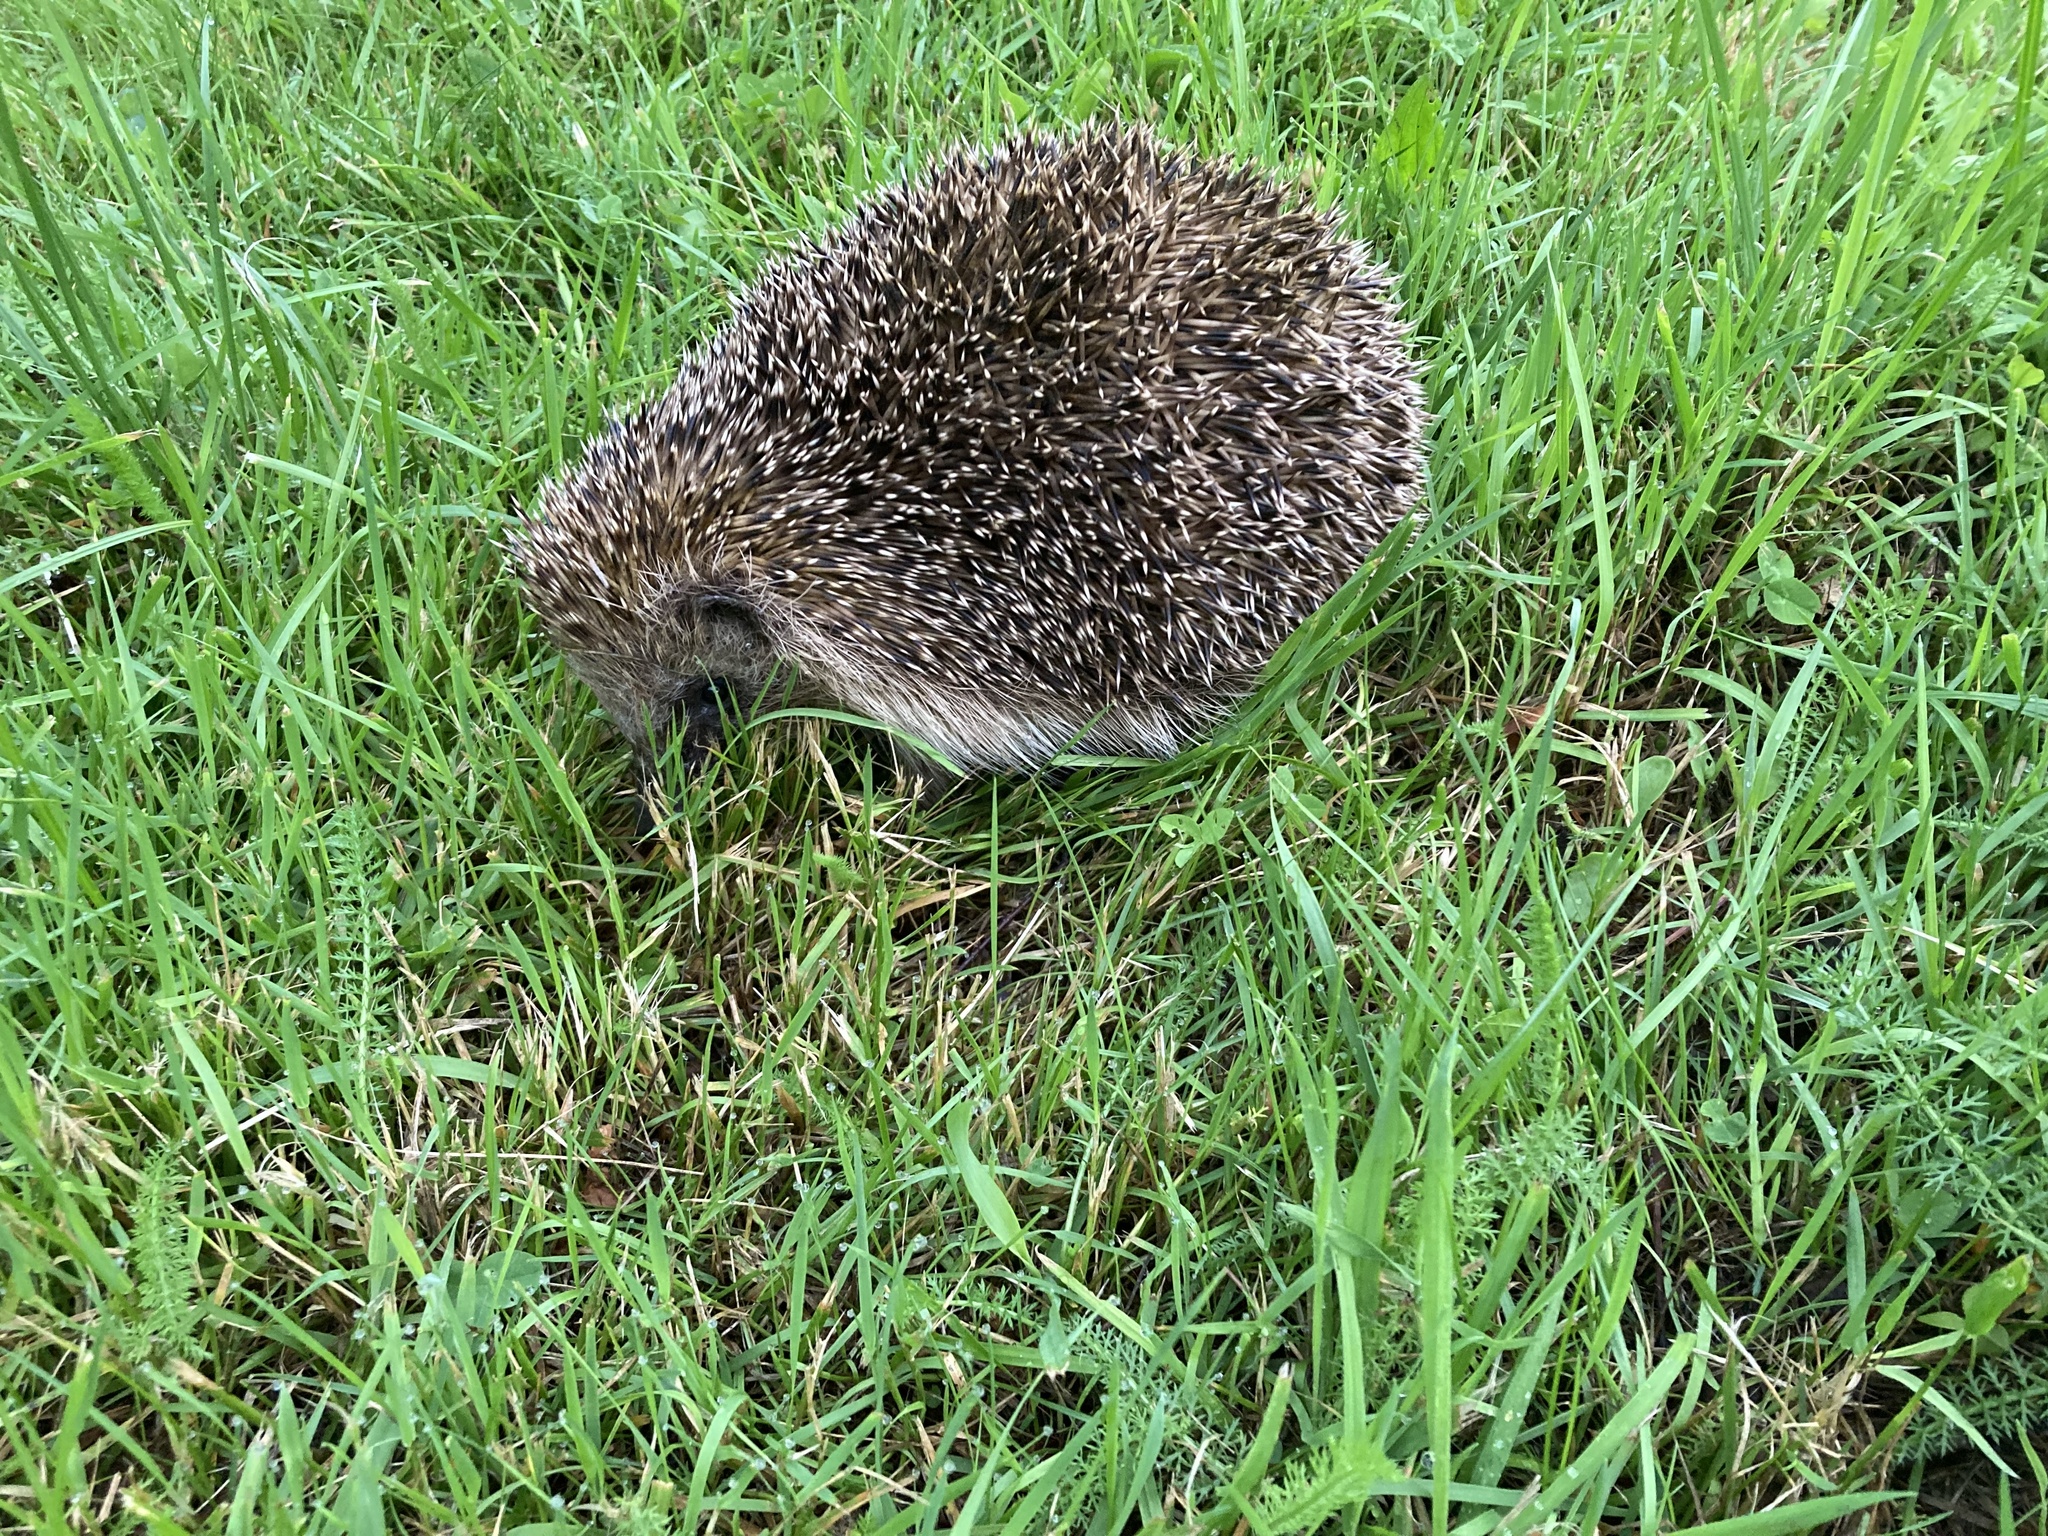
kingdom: Animalia
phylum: Chordata
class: Mammalia
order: Erinaceomorpha
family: Erinaceidae
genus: Erinaceus
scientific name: Erinaceus europaeus
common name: West european hedgehog
